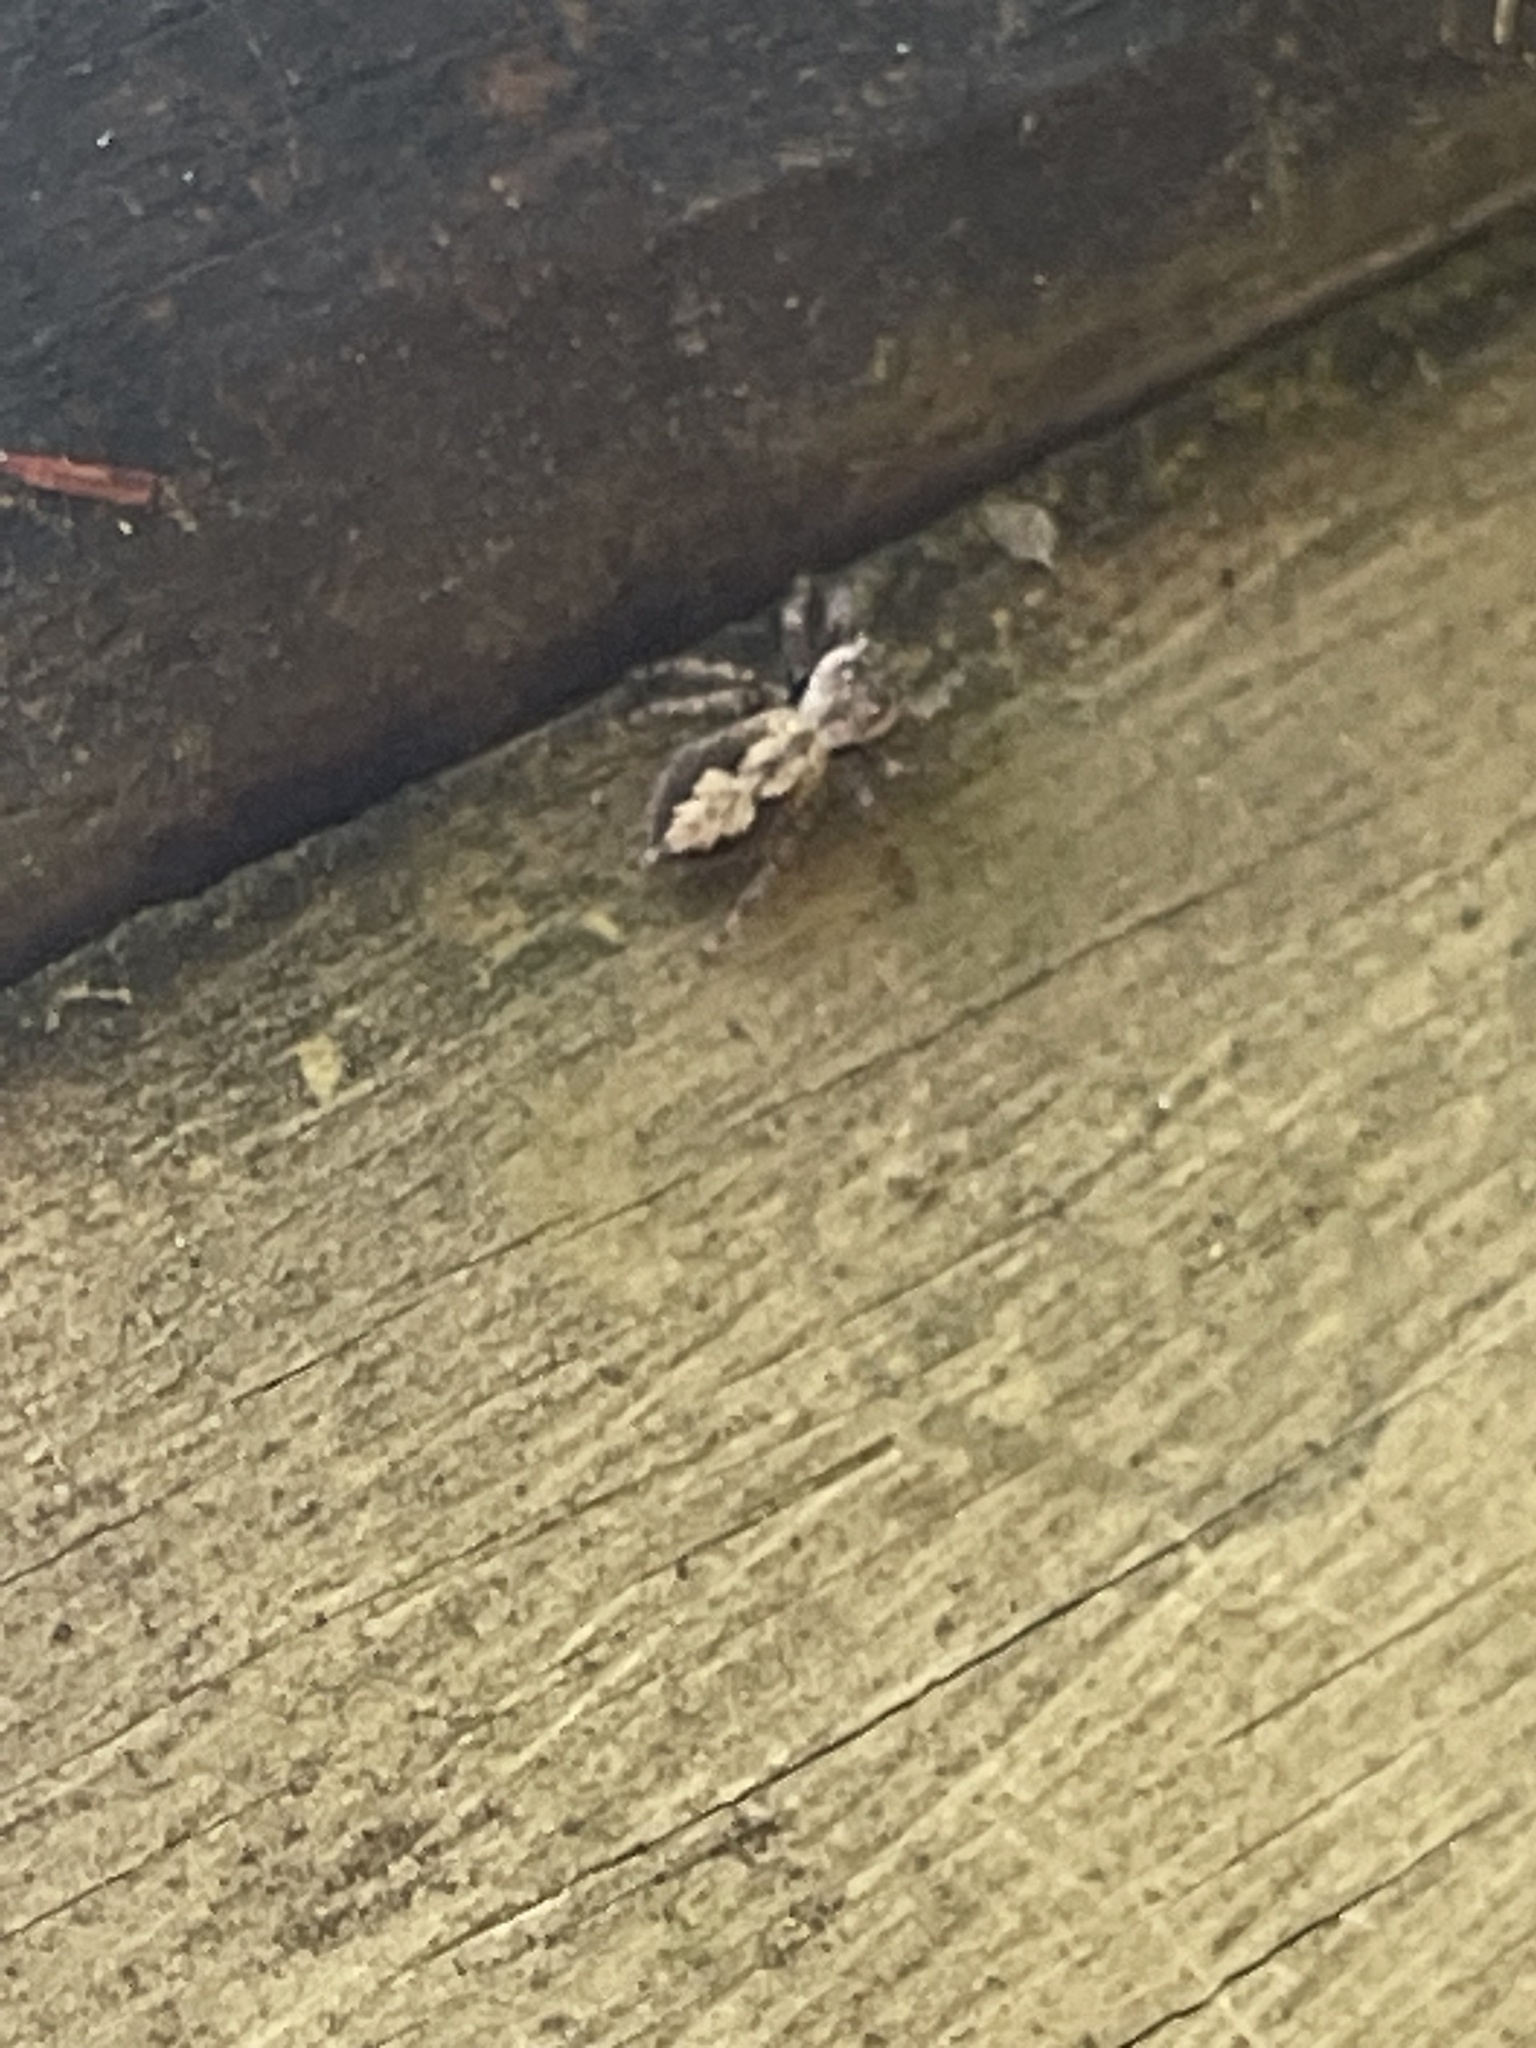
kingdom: Animalia
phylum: Arthropoda
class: Arachnida
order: Araneae
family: Salticidae
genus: Platycryptus
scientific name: Platycryptus undatus
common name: Tan jumping spider
